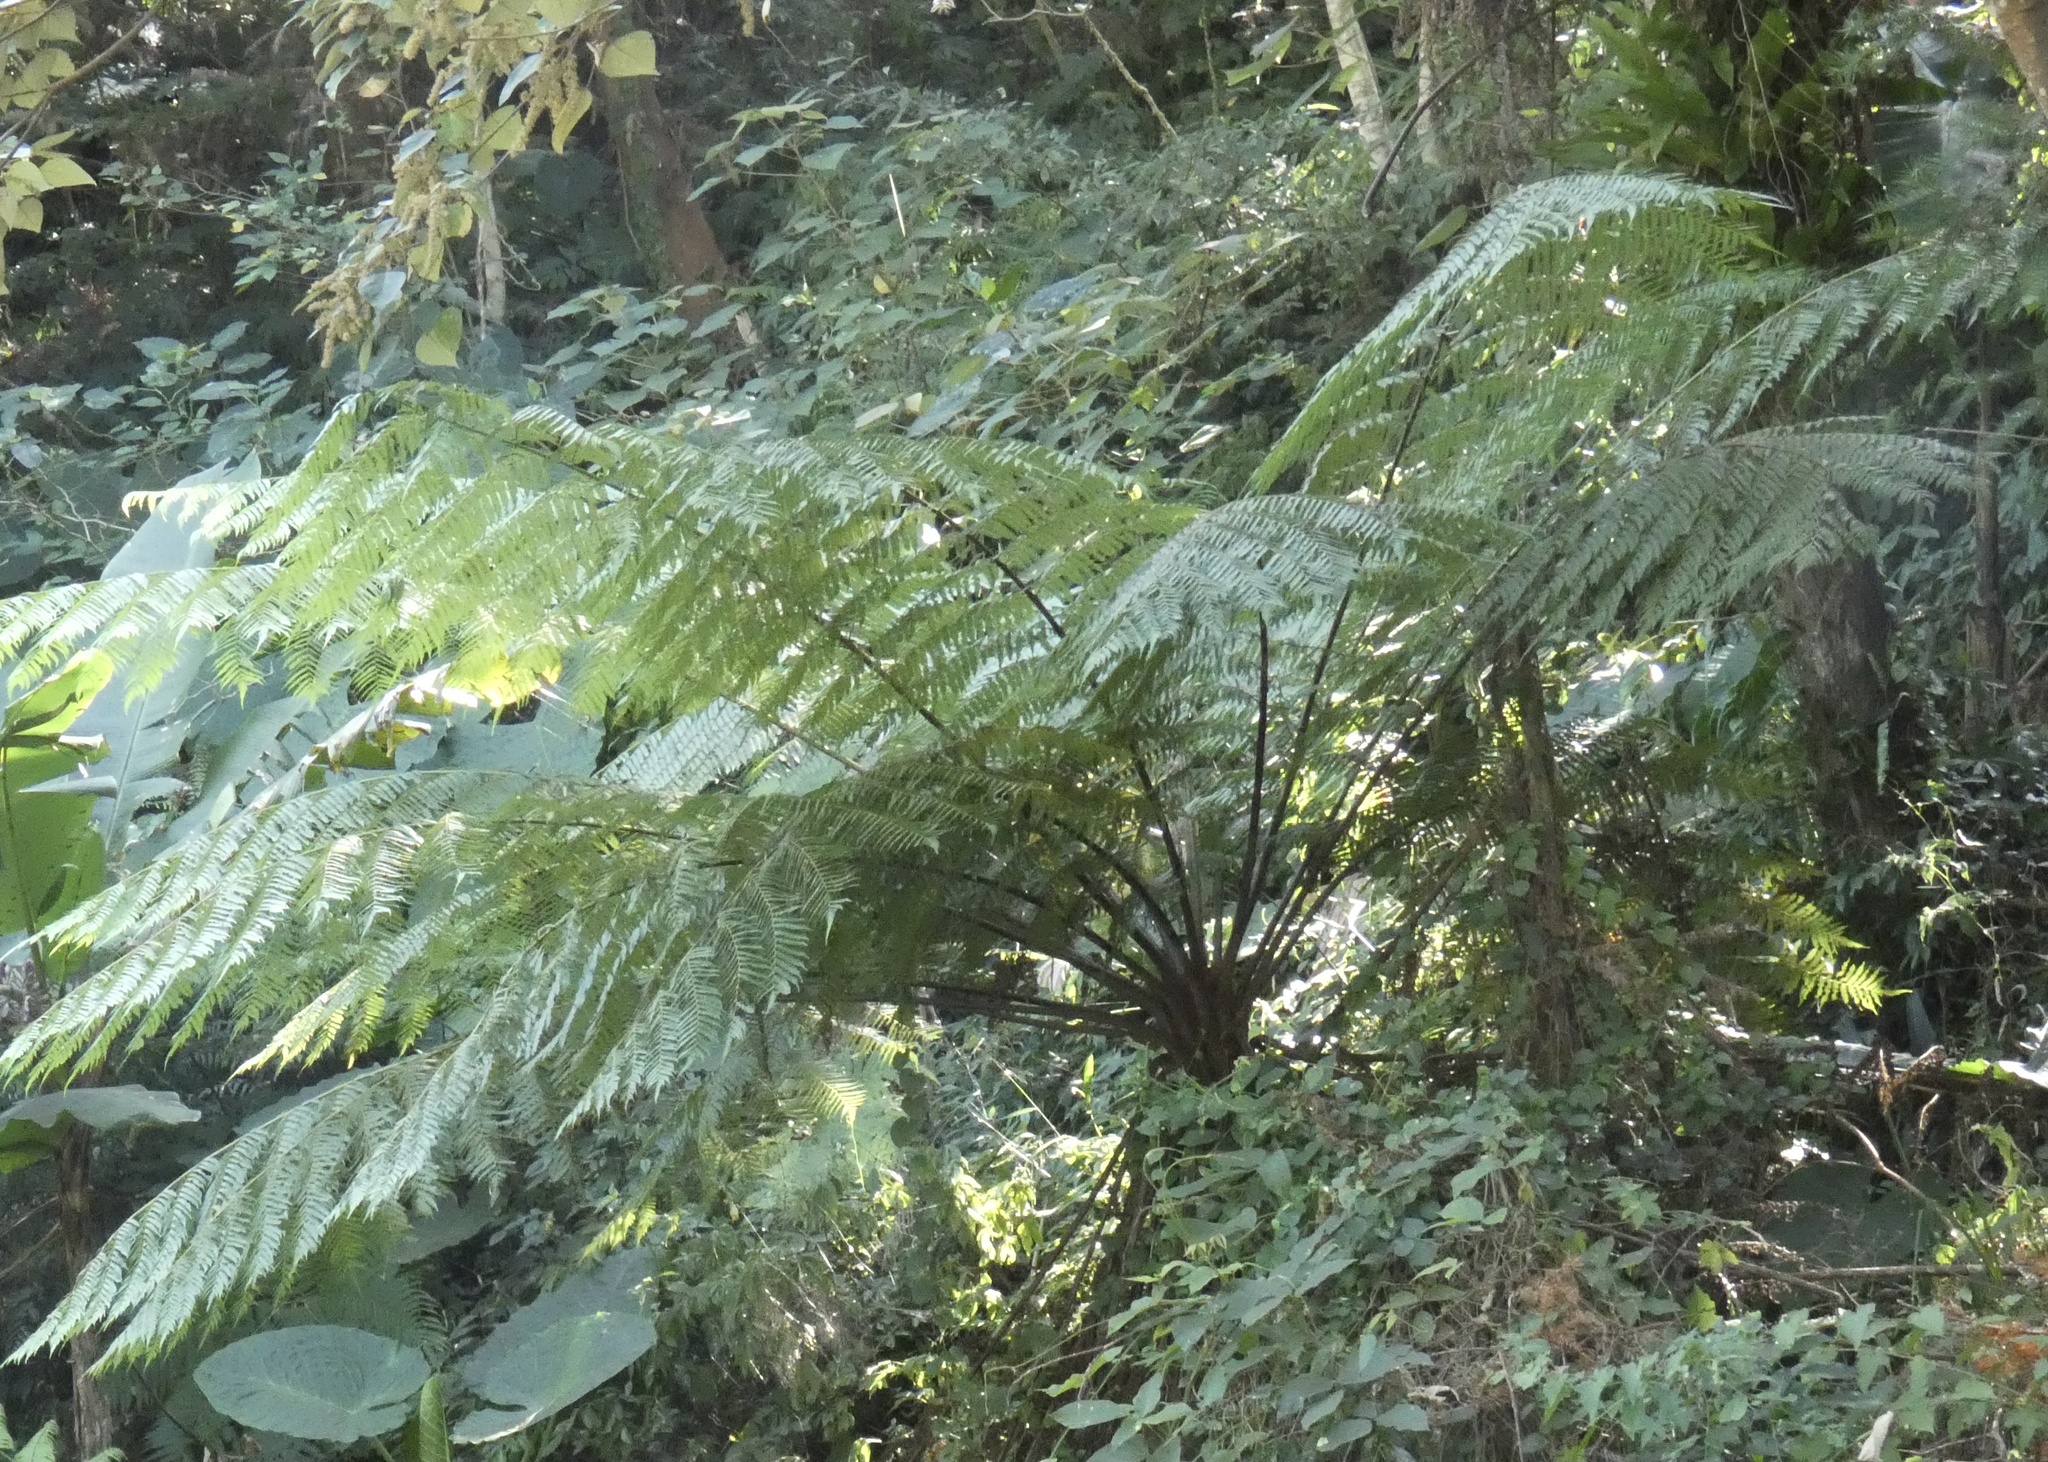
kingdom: Plantae
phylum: Tracheophyta
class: Polypodiopsida
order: Cyatheales
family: Cyatheaceae
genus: Alsophila
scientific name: Alsophila spinulosa
